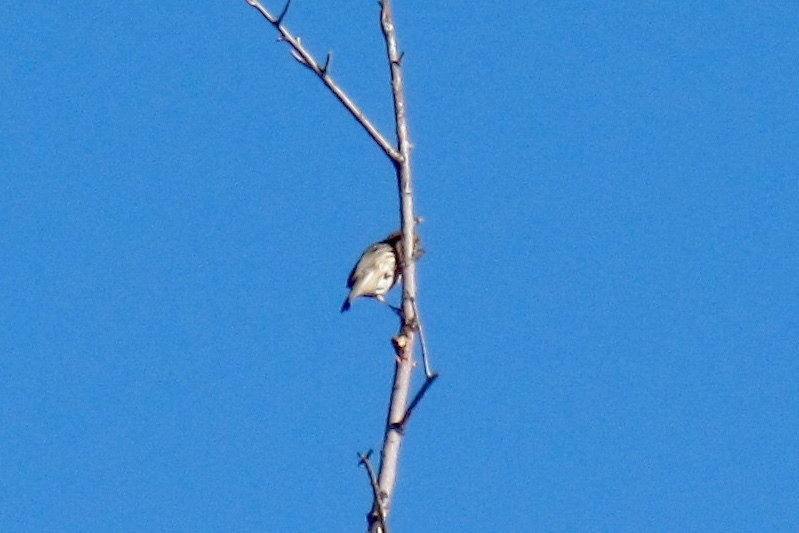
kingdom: Animalia
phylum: Chordata
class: Aves
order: Passeriformes
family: Fringillidae
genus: Haemorhous
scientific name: Haemorhous mexicanus
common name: House finch
